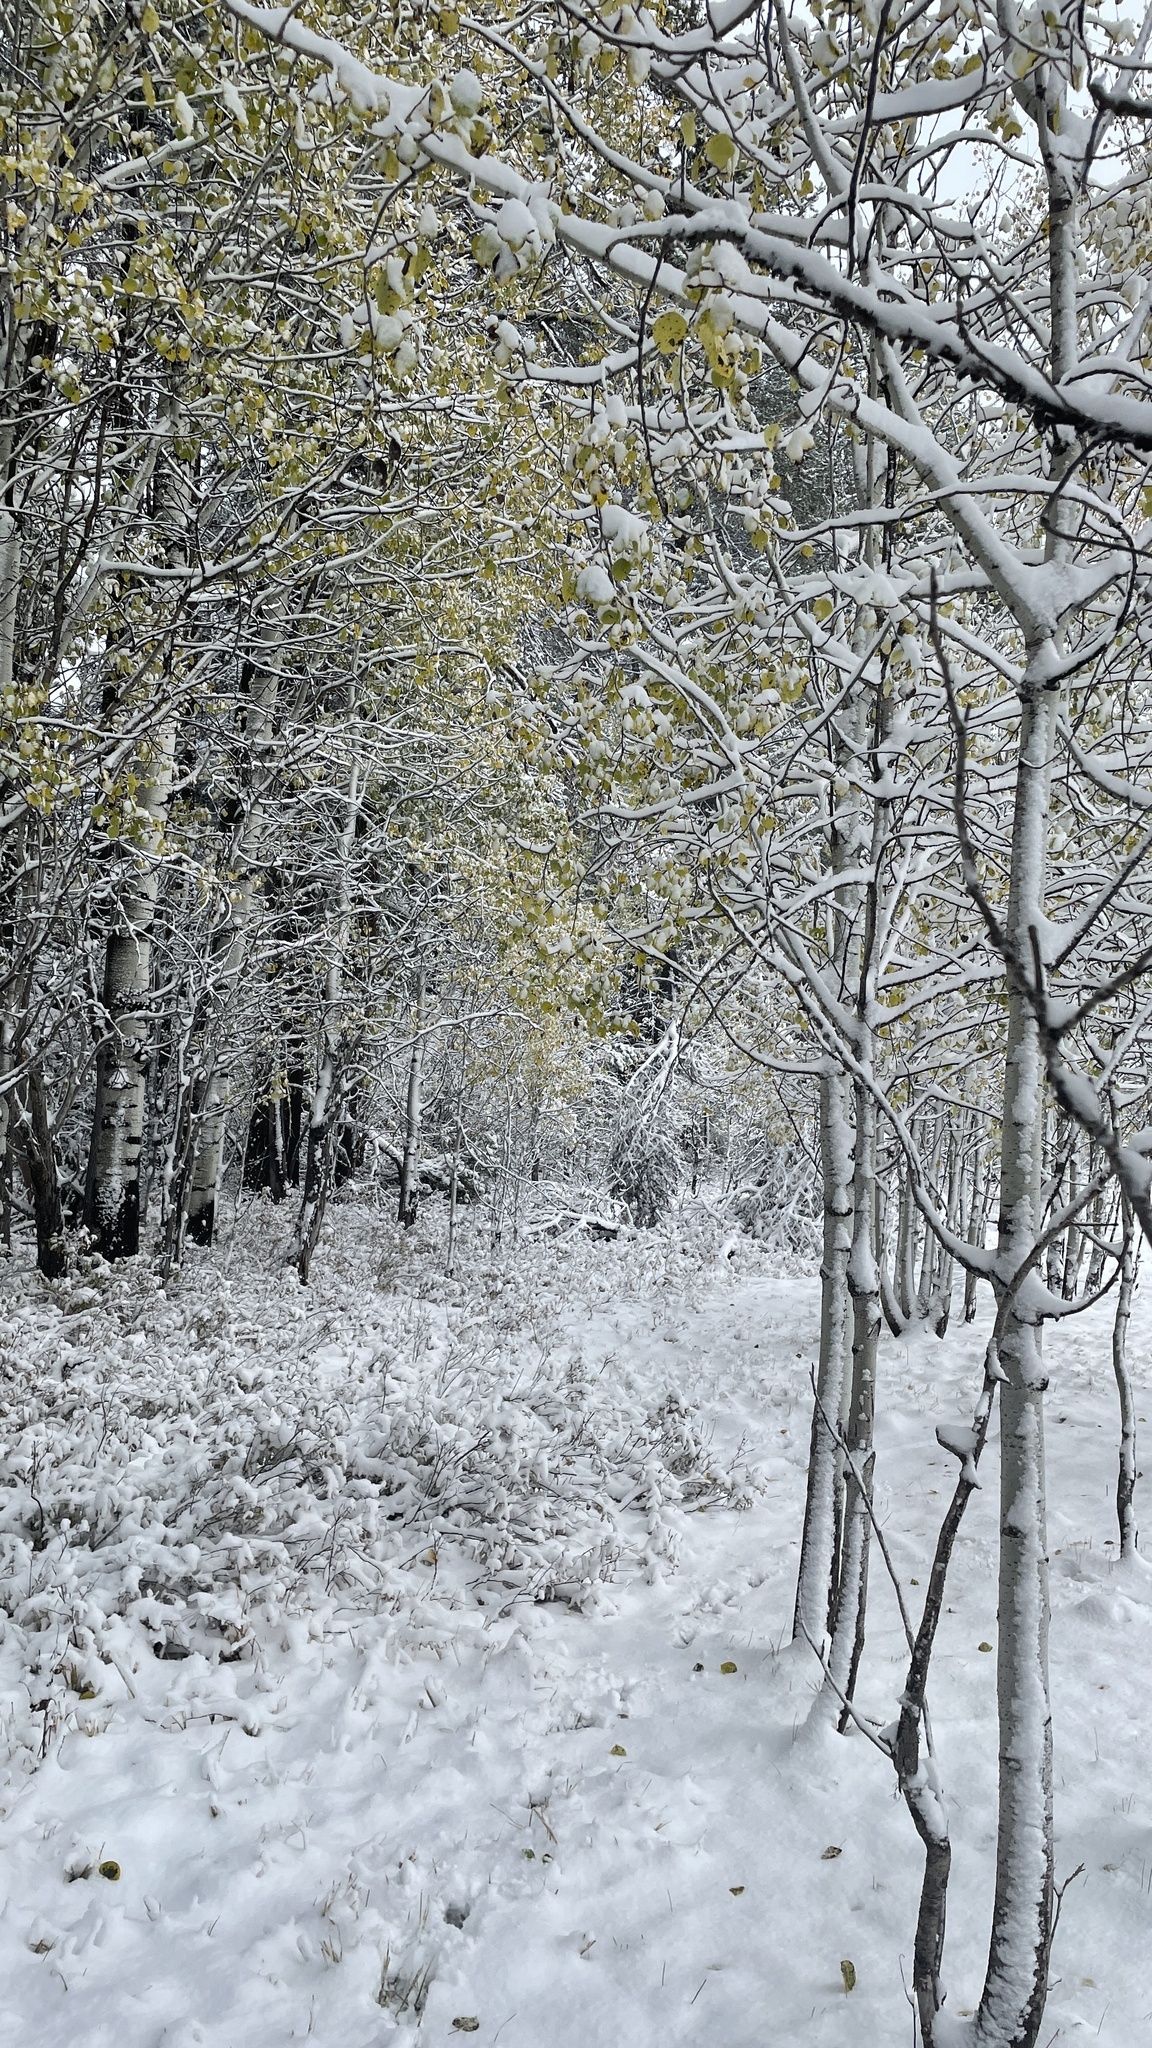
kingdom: Plantae
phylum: Tracheophyta
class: Magnoliopsida
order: Malpighiales
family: Salicaceae
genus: Populus
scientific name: Populus tremuloides
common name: Quaking aspen
